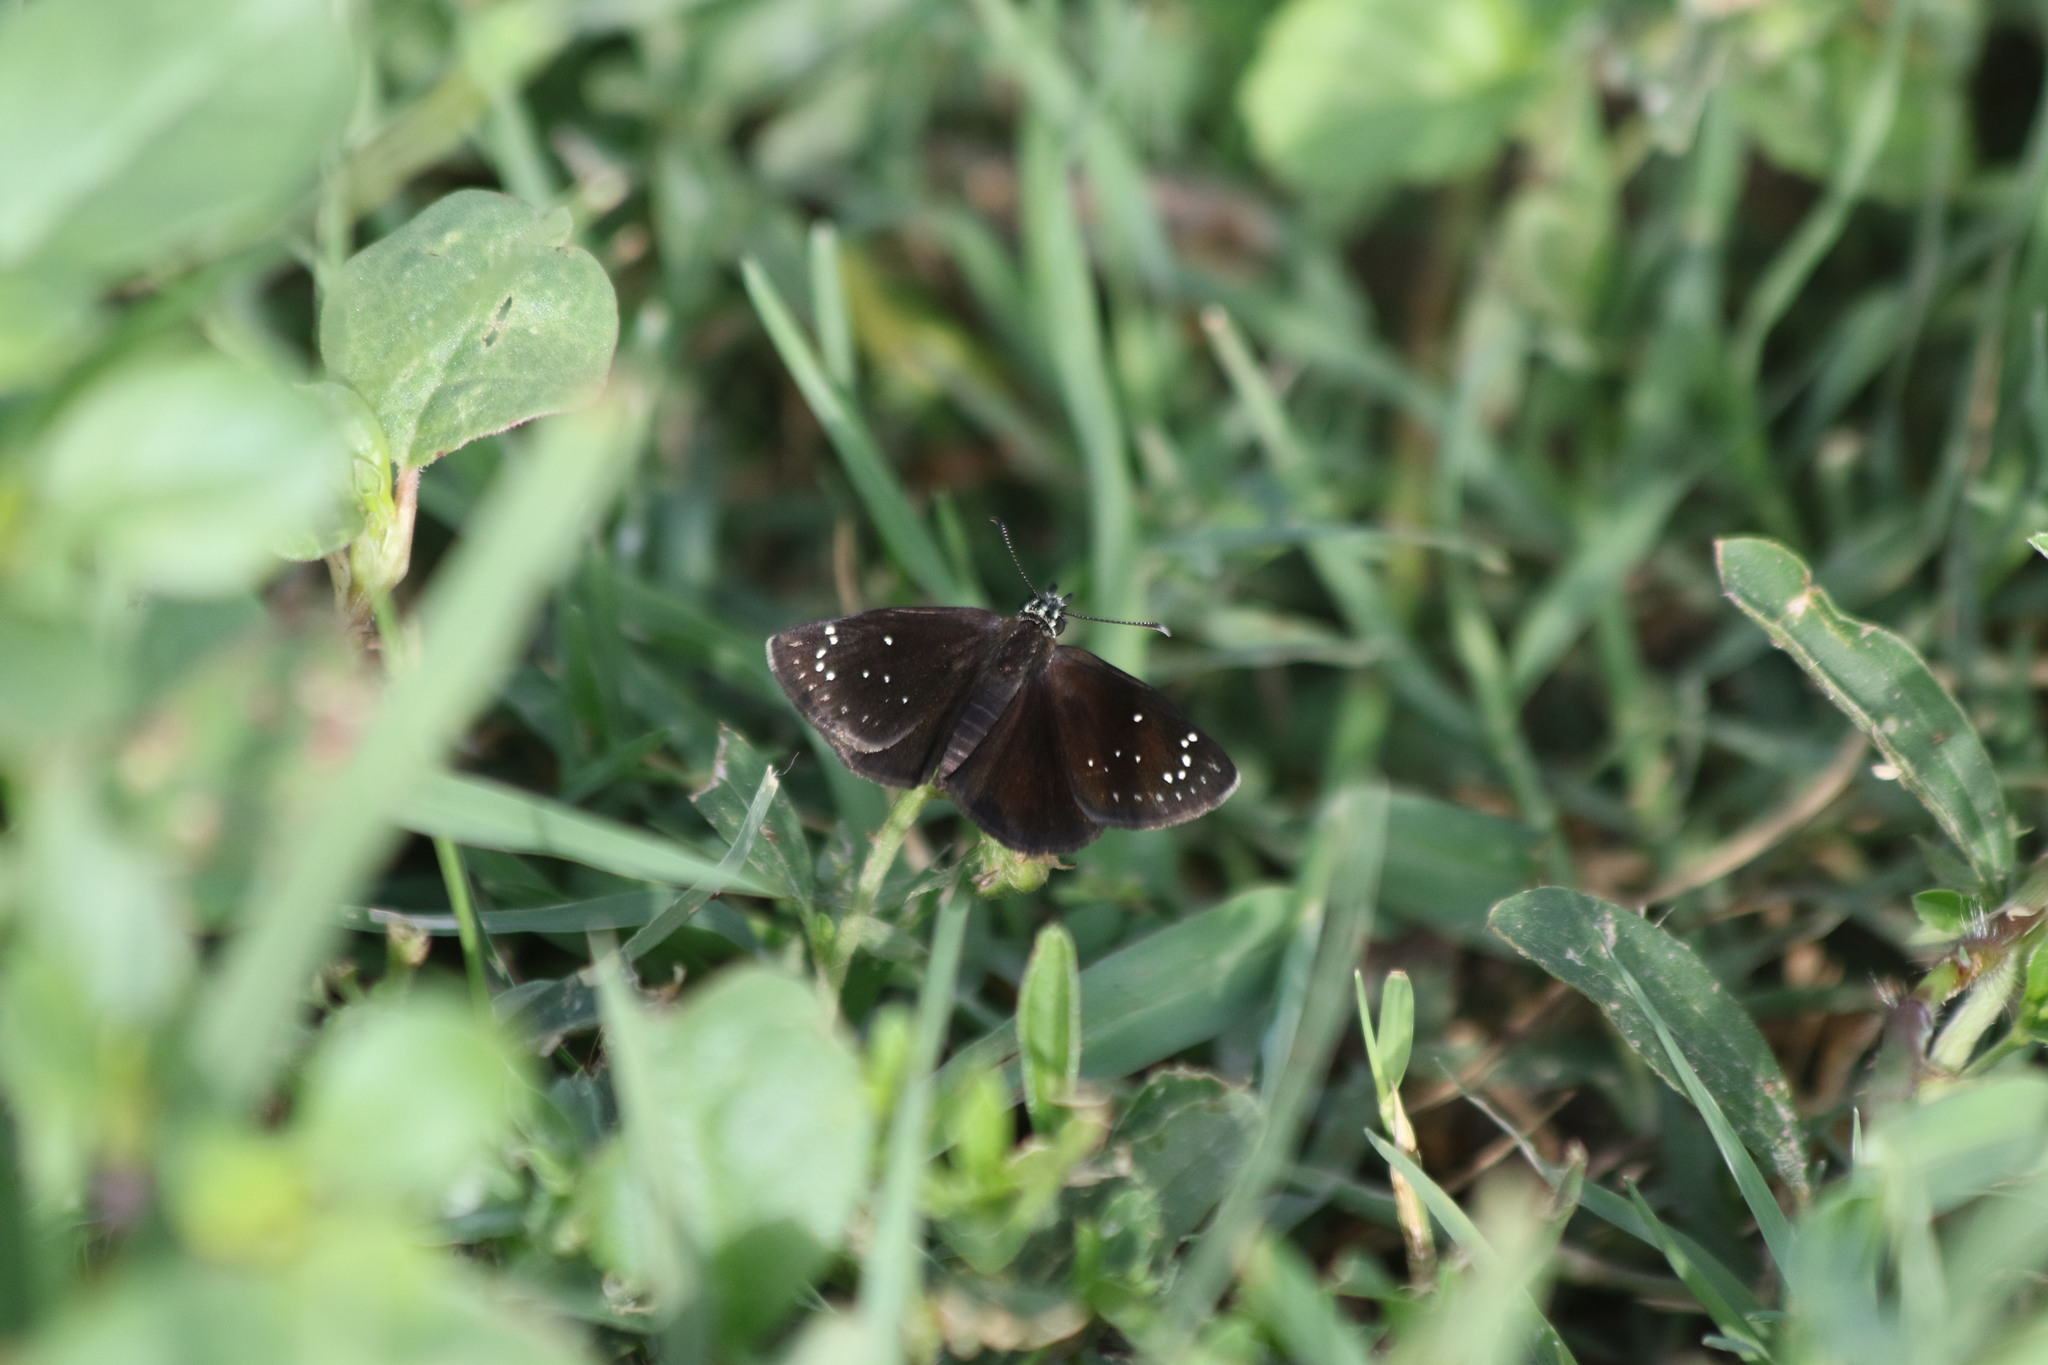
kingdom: Animalia
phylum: Arthropoda
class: Insecta
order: Lepidoptera
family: Hesperiidae
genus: Pholisora
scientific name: Pholisora catullus
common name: Common sootywing
